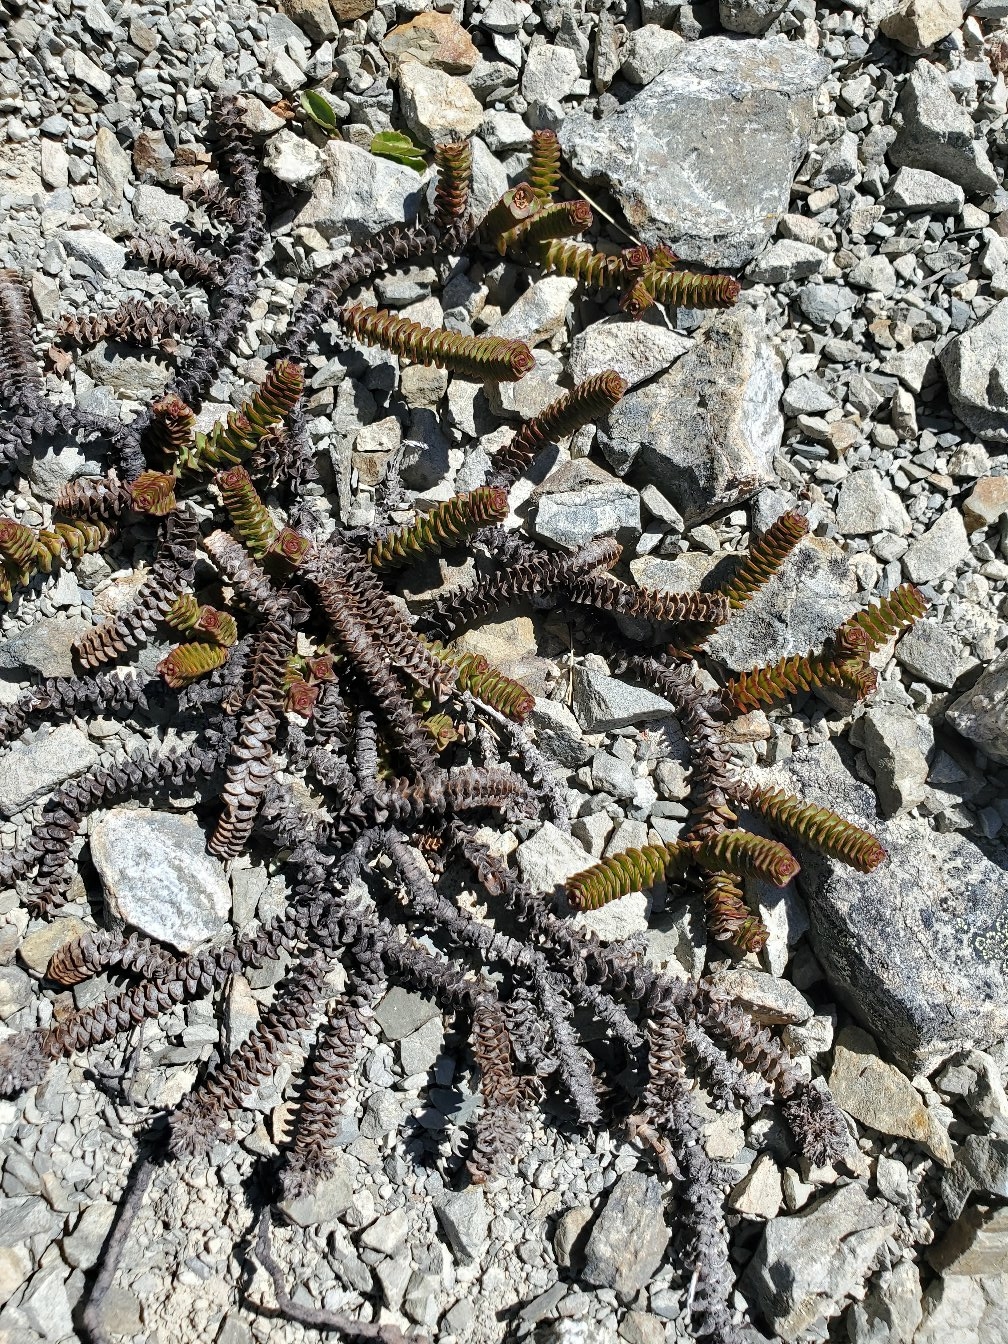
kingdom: Plantae
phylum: Tracheophyta
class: Magnoliopsida
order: Lamiales
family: Plantaginaceae
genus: Veronica
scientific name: Veronica epacridea
